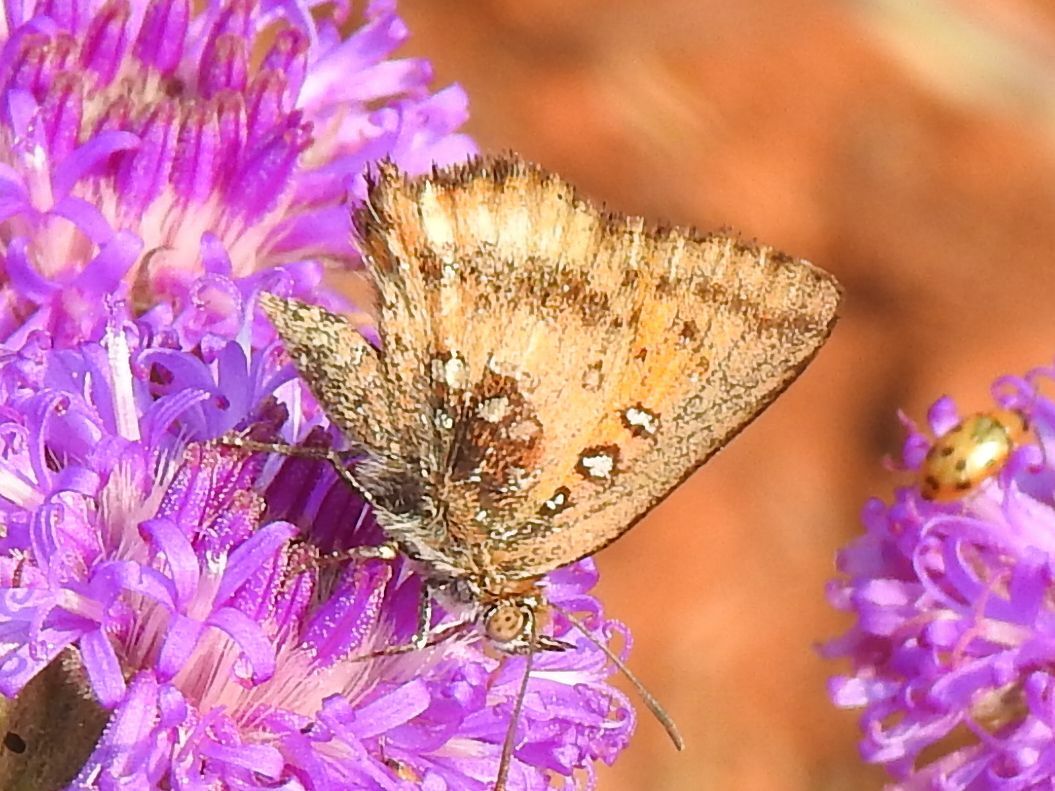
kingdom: Animalia
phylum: Arthropoda
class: Insecta
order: Lepidoptera
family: Lycaenidae
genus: Aloeides
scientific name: Aloeides molomo
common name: Mottled russet
